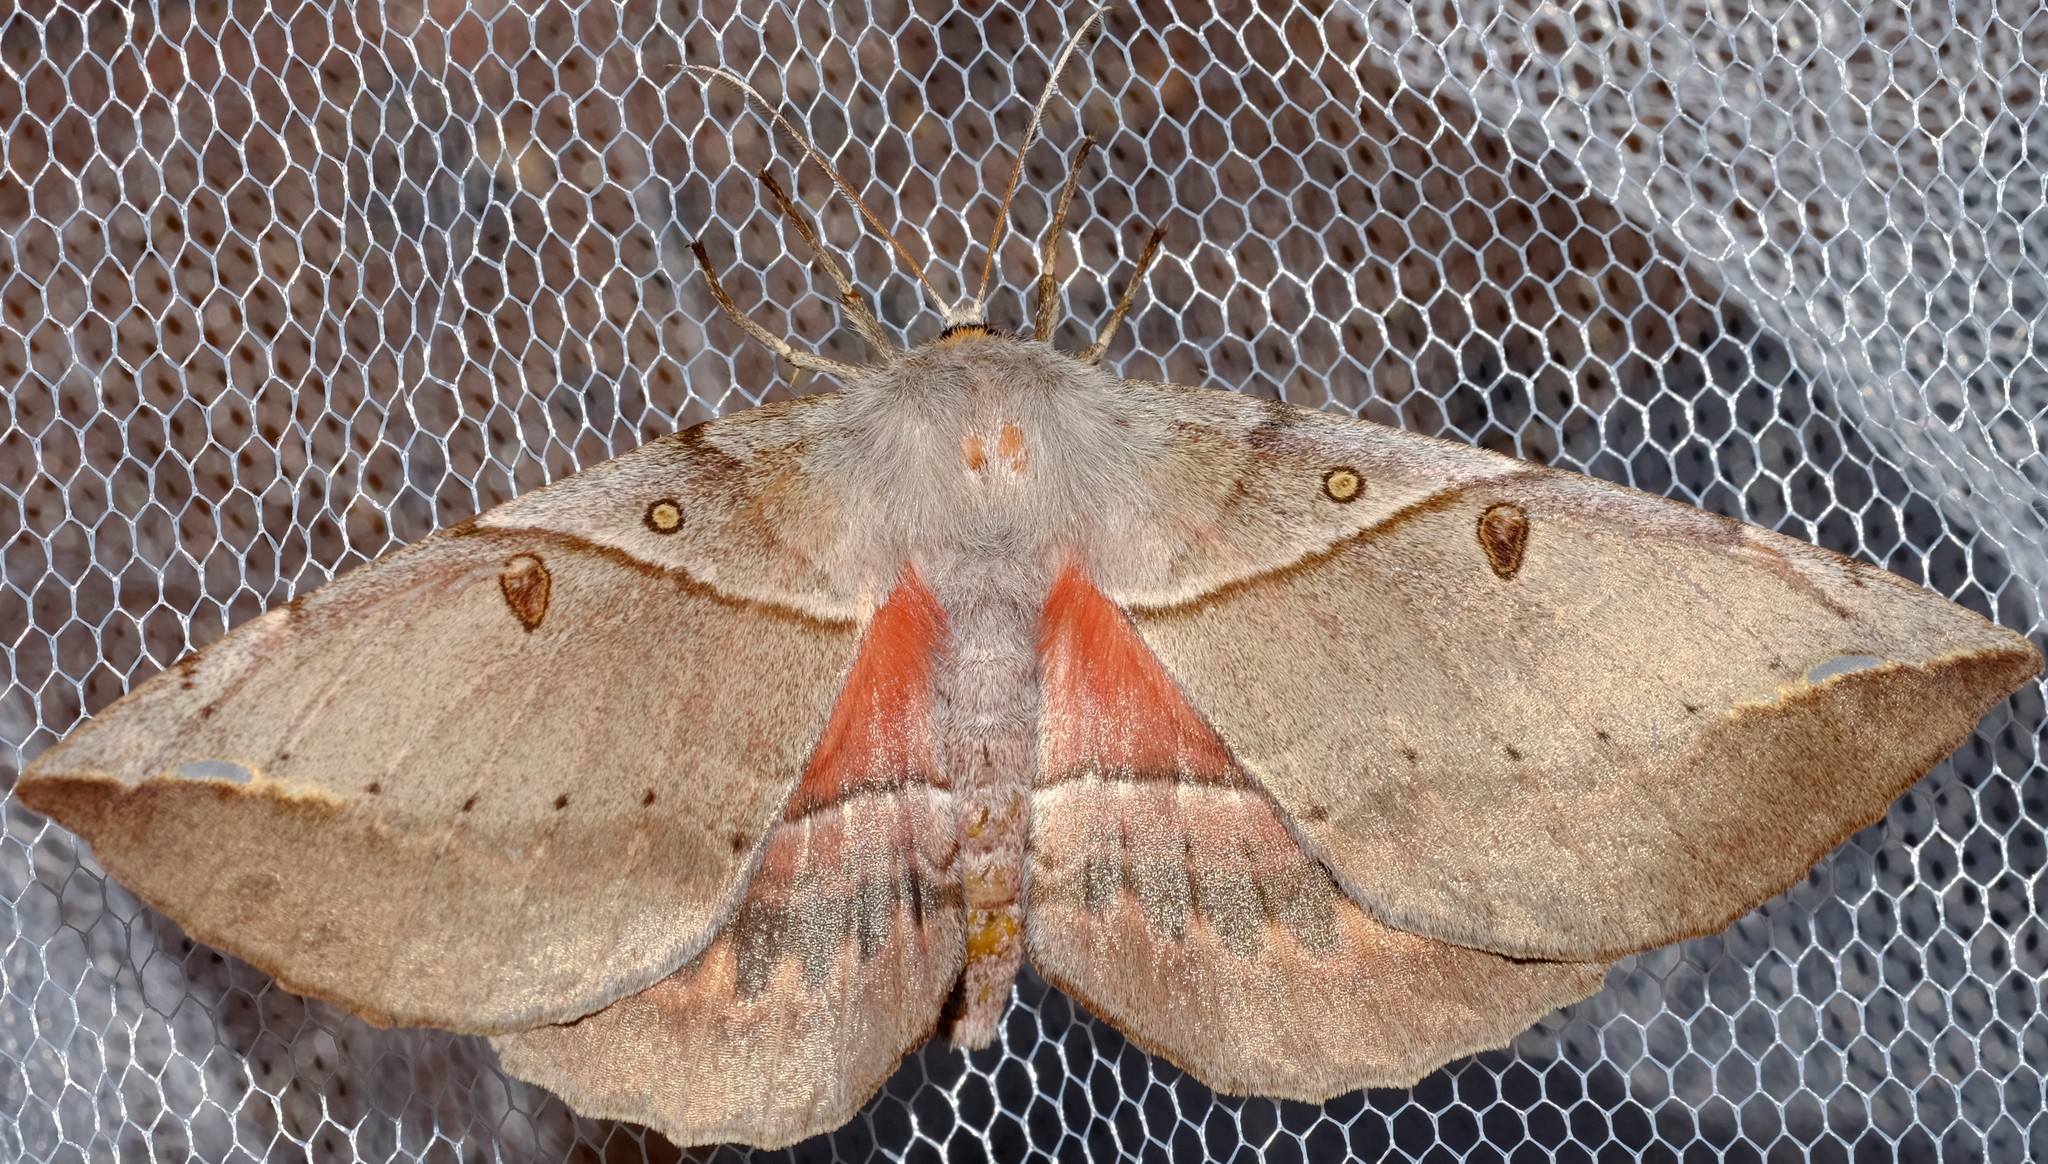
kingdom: Animalia
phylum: Arthropoda
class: Insecta
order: Lepidoptera
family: Anthelidae
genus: Chelepteryx
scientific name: Chelepteryx chalepteryx
